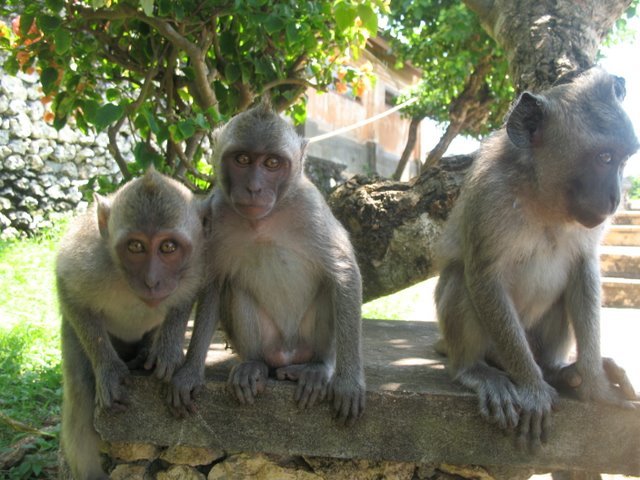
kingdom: Animalia
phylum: Chordata
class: Mammalia
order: Primates
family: Cercopithecidae
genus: Macaca
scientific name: Macaca fascicularis
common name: Crab-eating macaque
